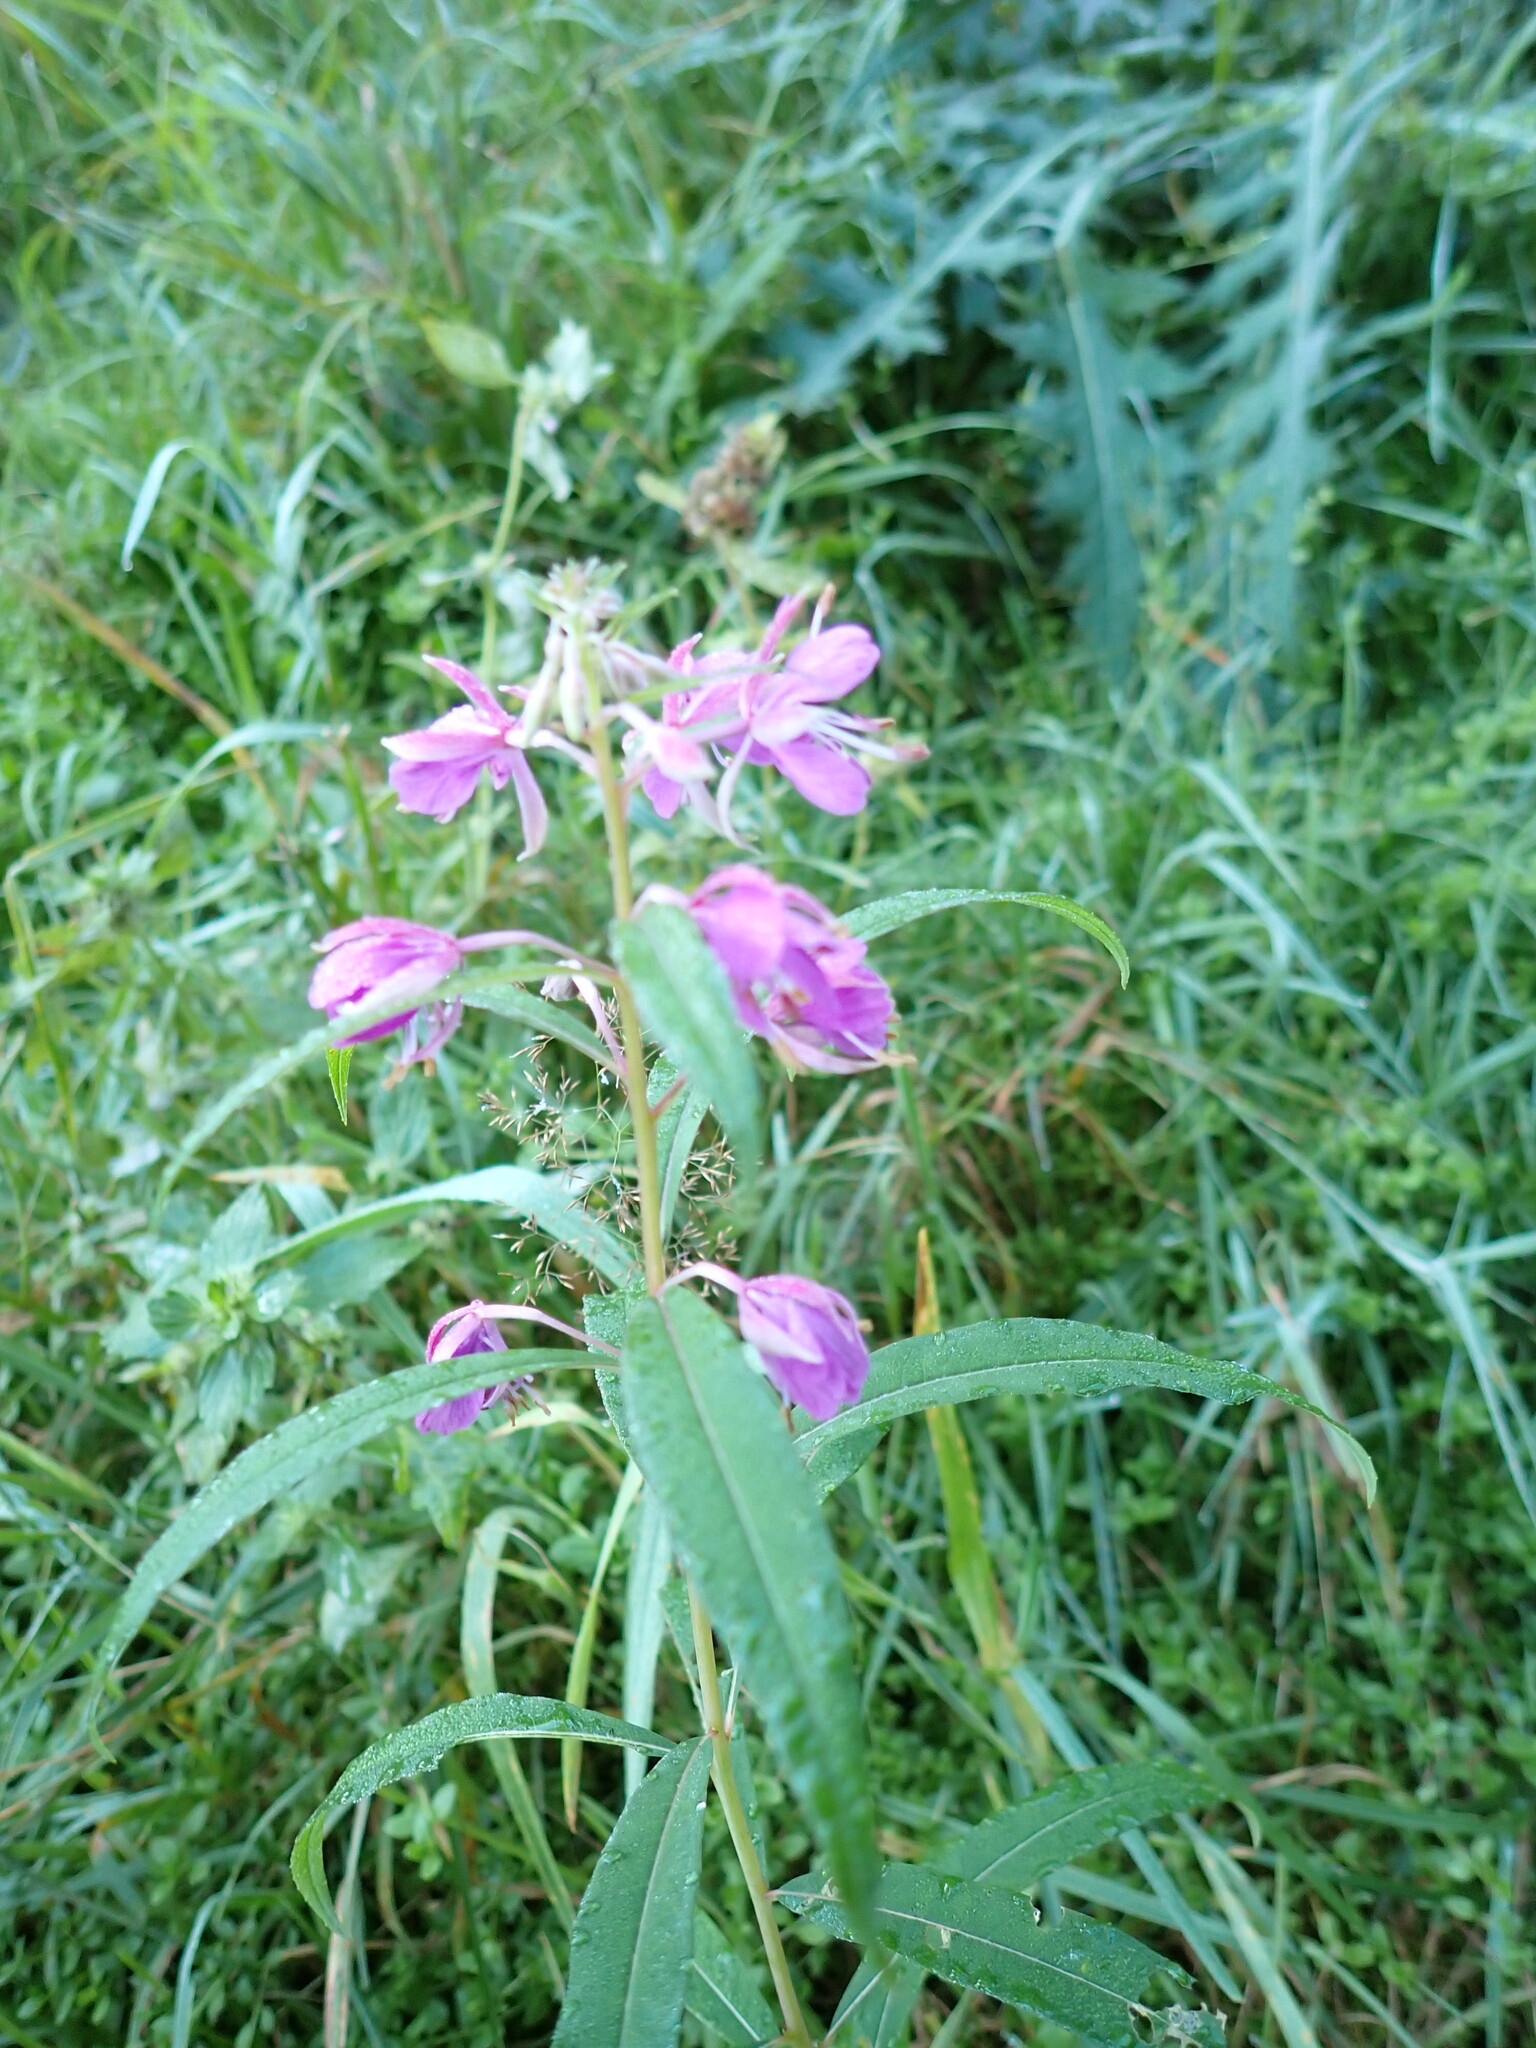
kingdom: Plantae
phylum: Tracheophyta
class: Magnoliopsida
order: Myrtales
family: Onagraceae
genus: Chamaenerion
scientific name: Chamaenerion angustifolium
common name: Fireweed
